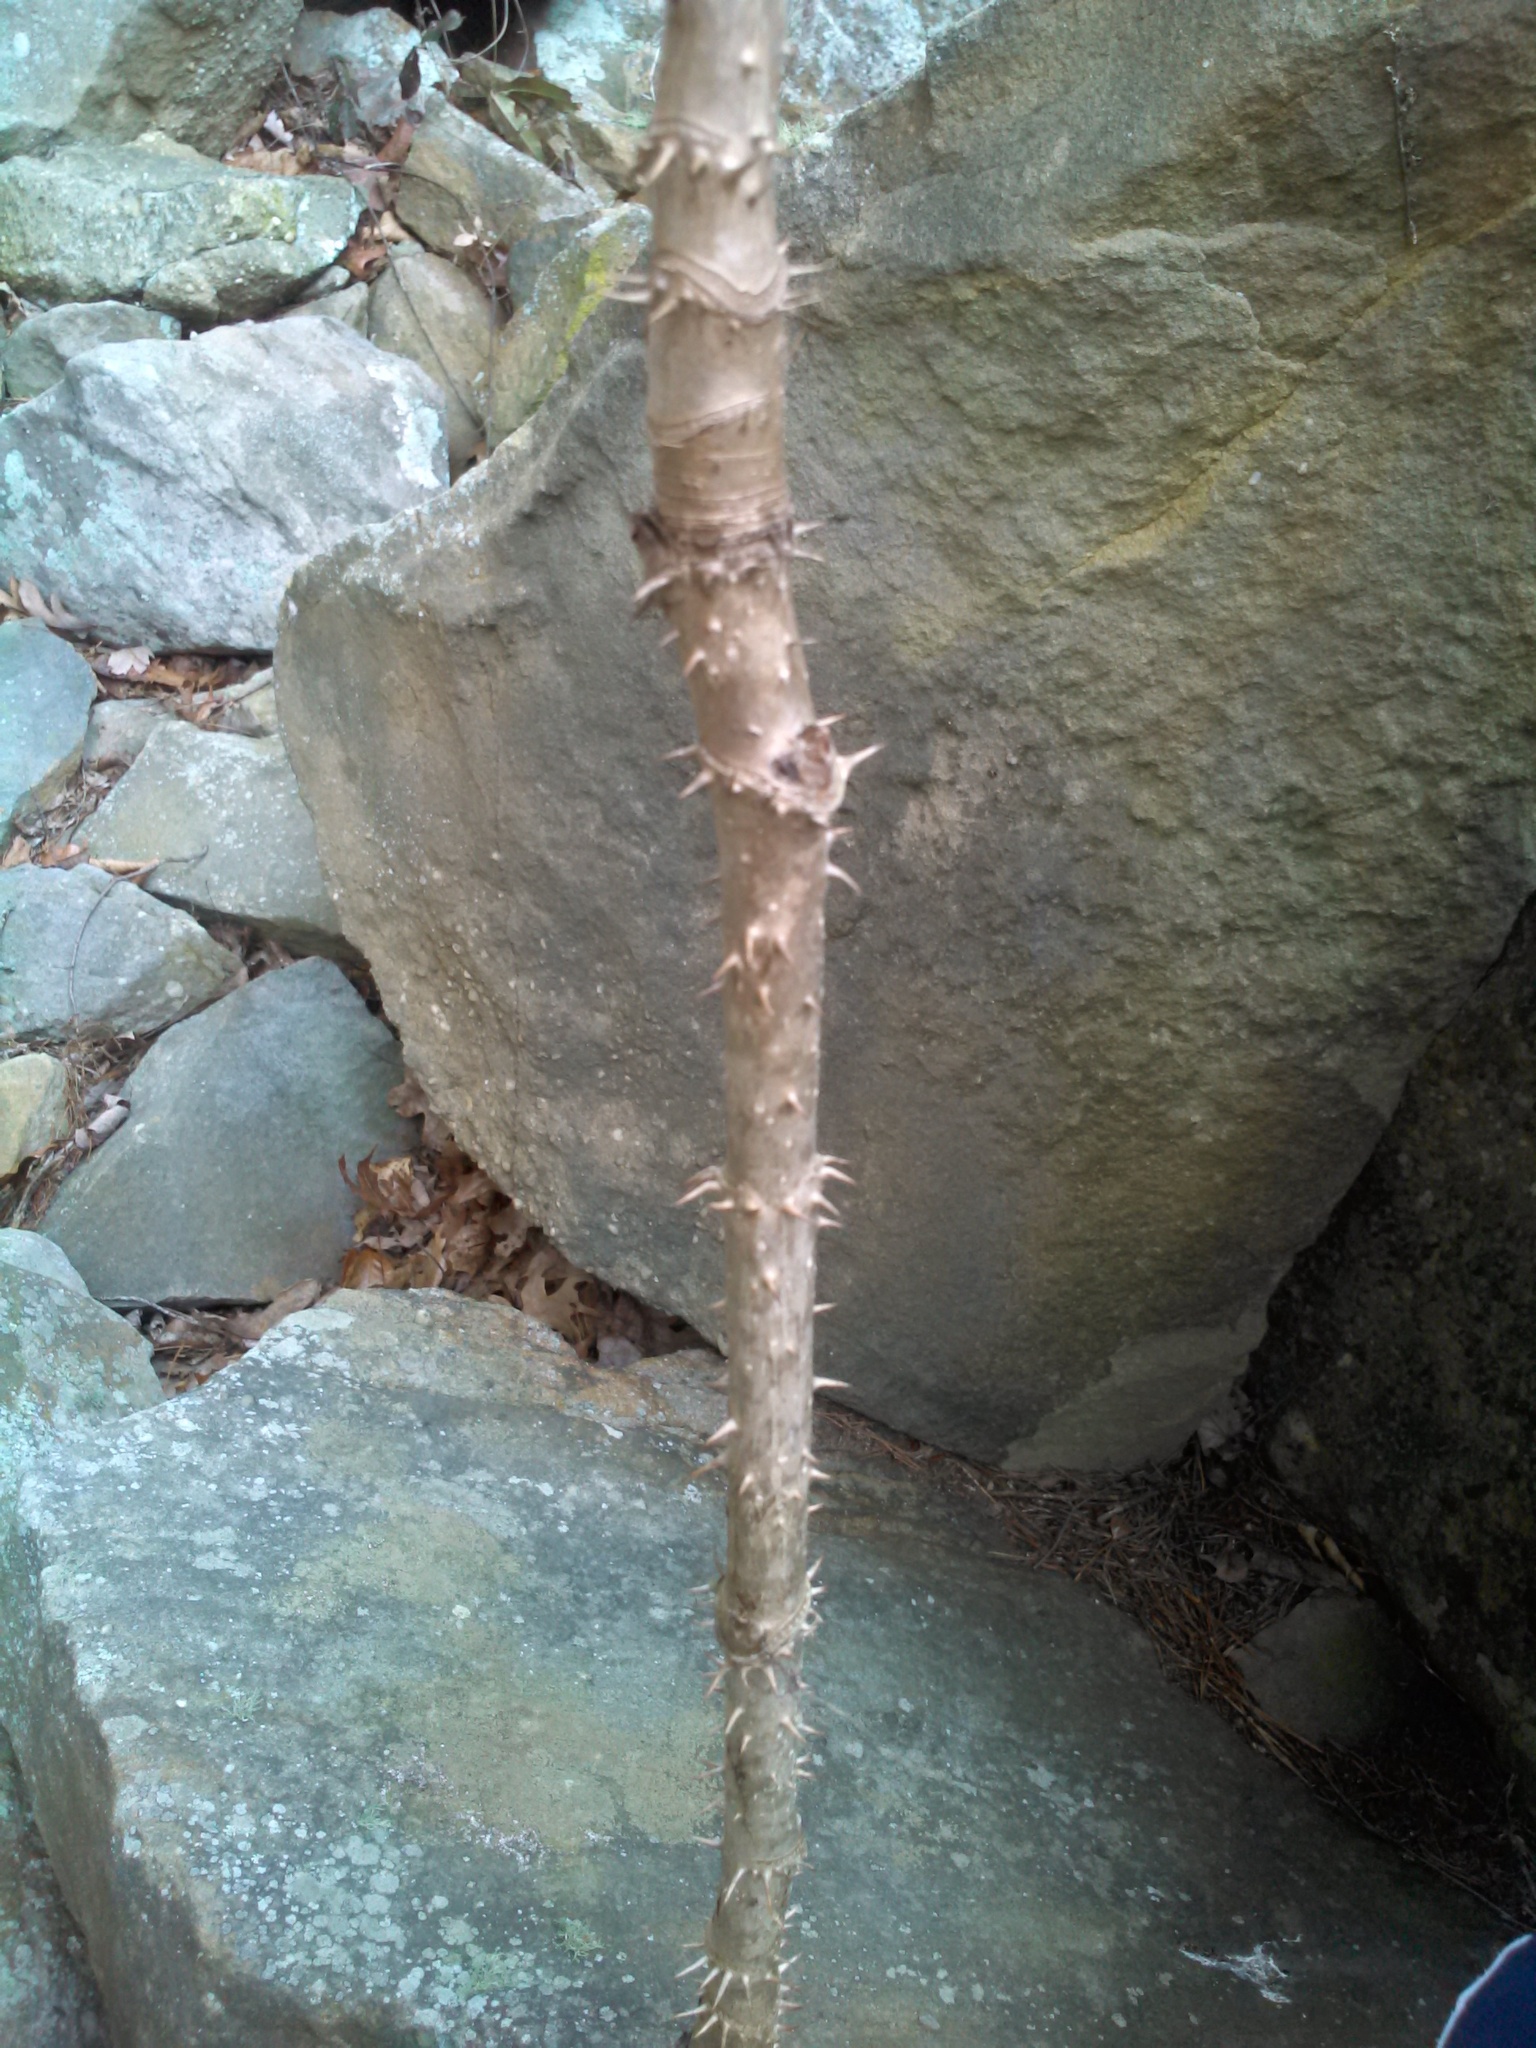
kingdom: Plantae
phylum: Tracheophyta
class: Magnoliopsida
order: Apiales
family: Araliaceae
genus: Aralia
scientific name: Aralia spinosa
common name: Hercules'-club
